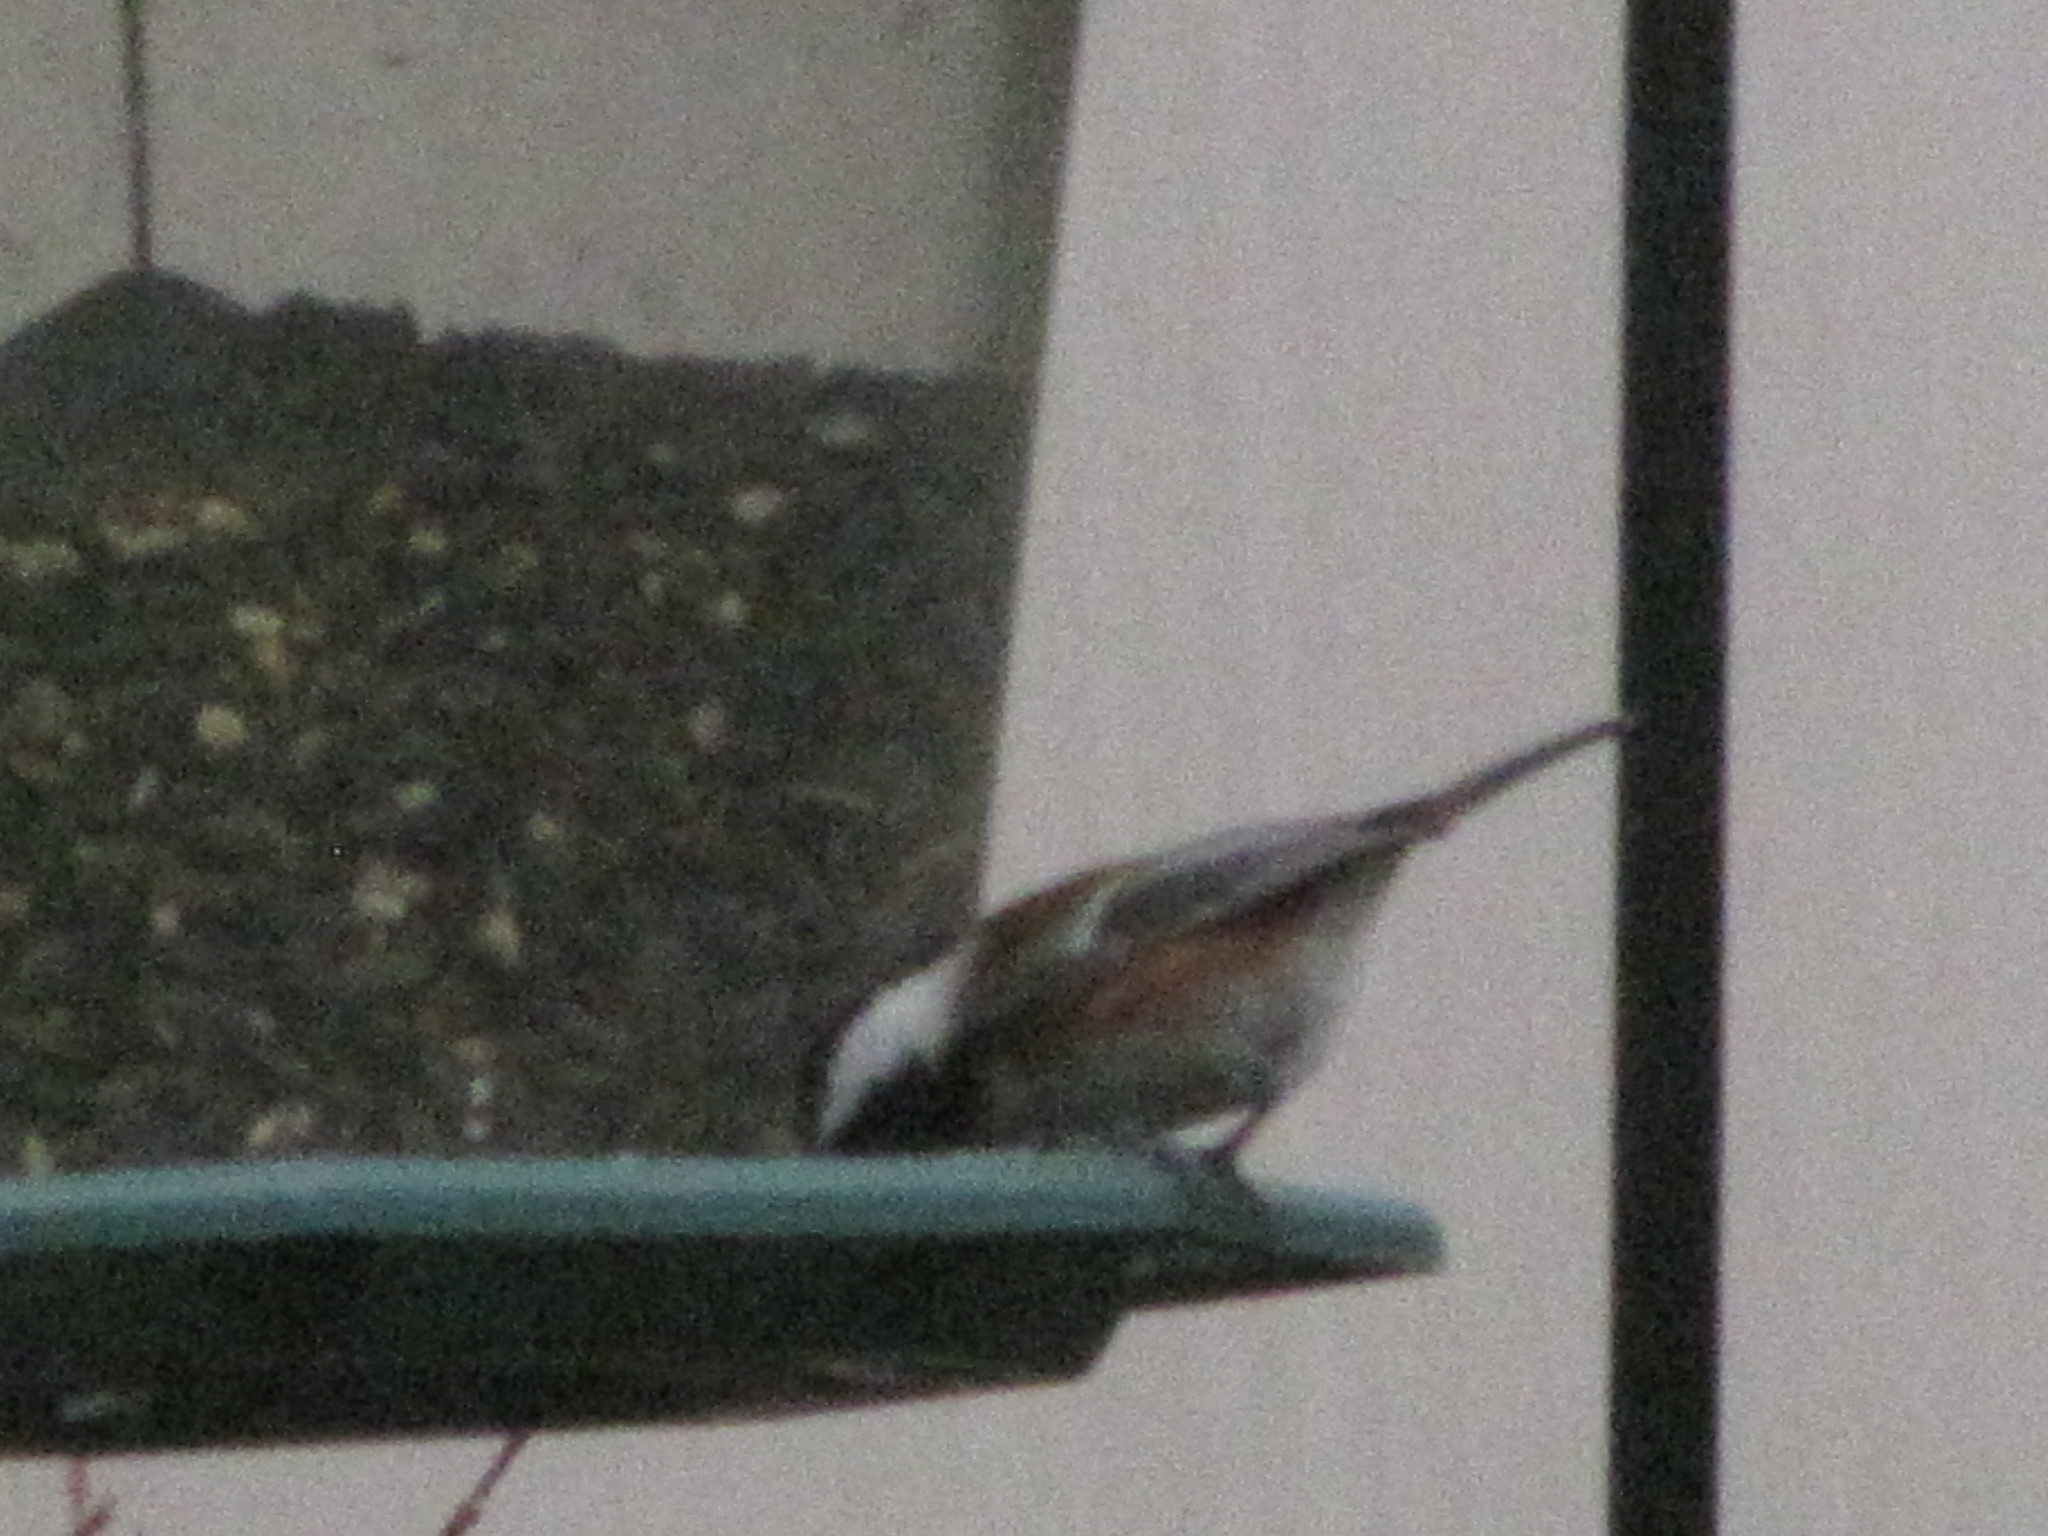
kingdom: Animalia
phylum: Chordata
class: Aves
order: Passeriformes
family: Paridae
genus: Poecile
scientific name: Poecile rufescens
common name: Chestnut-backed chickadee
